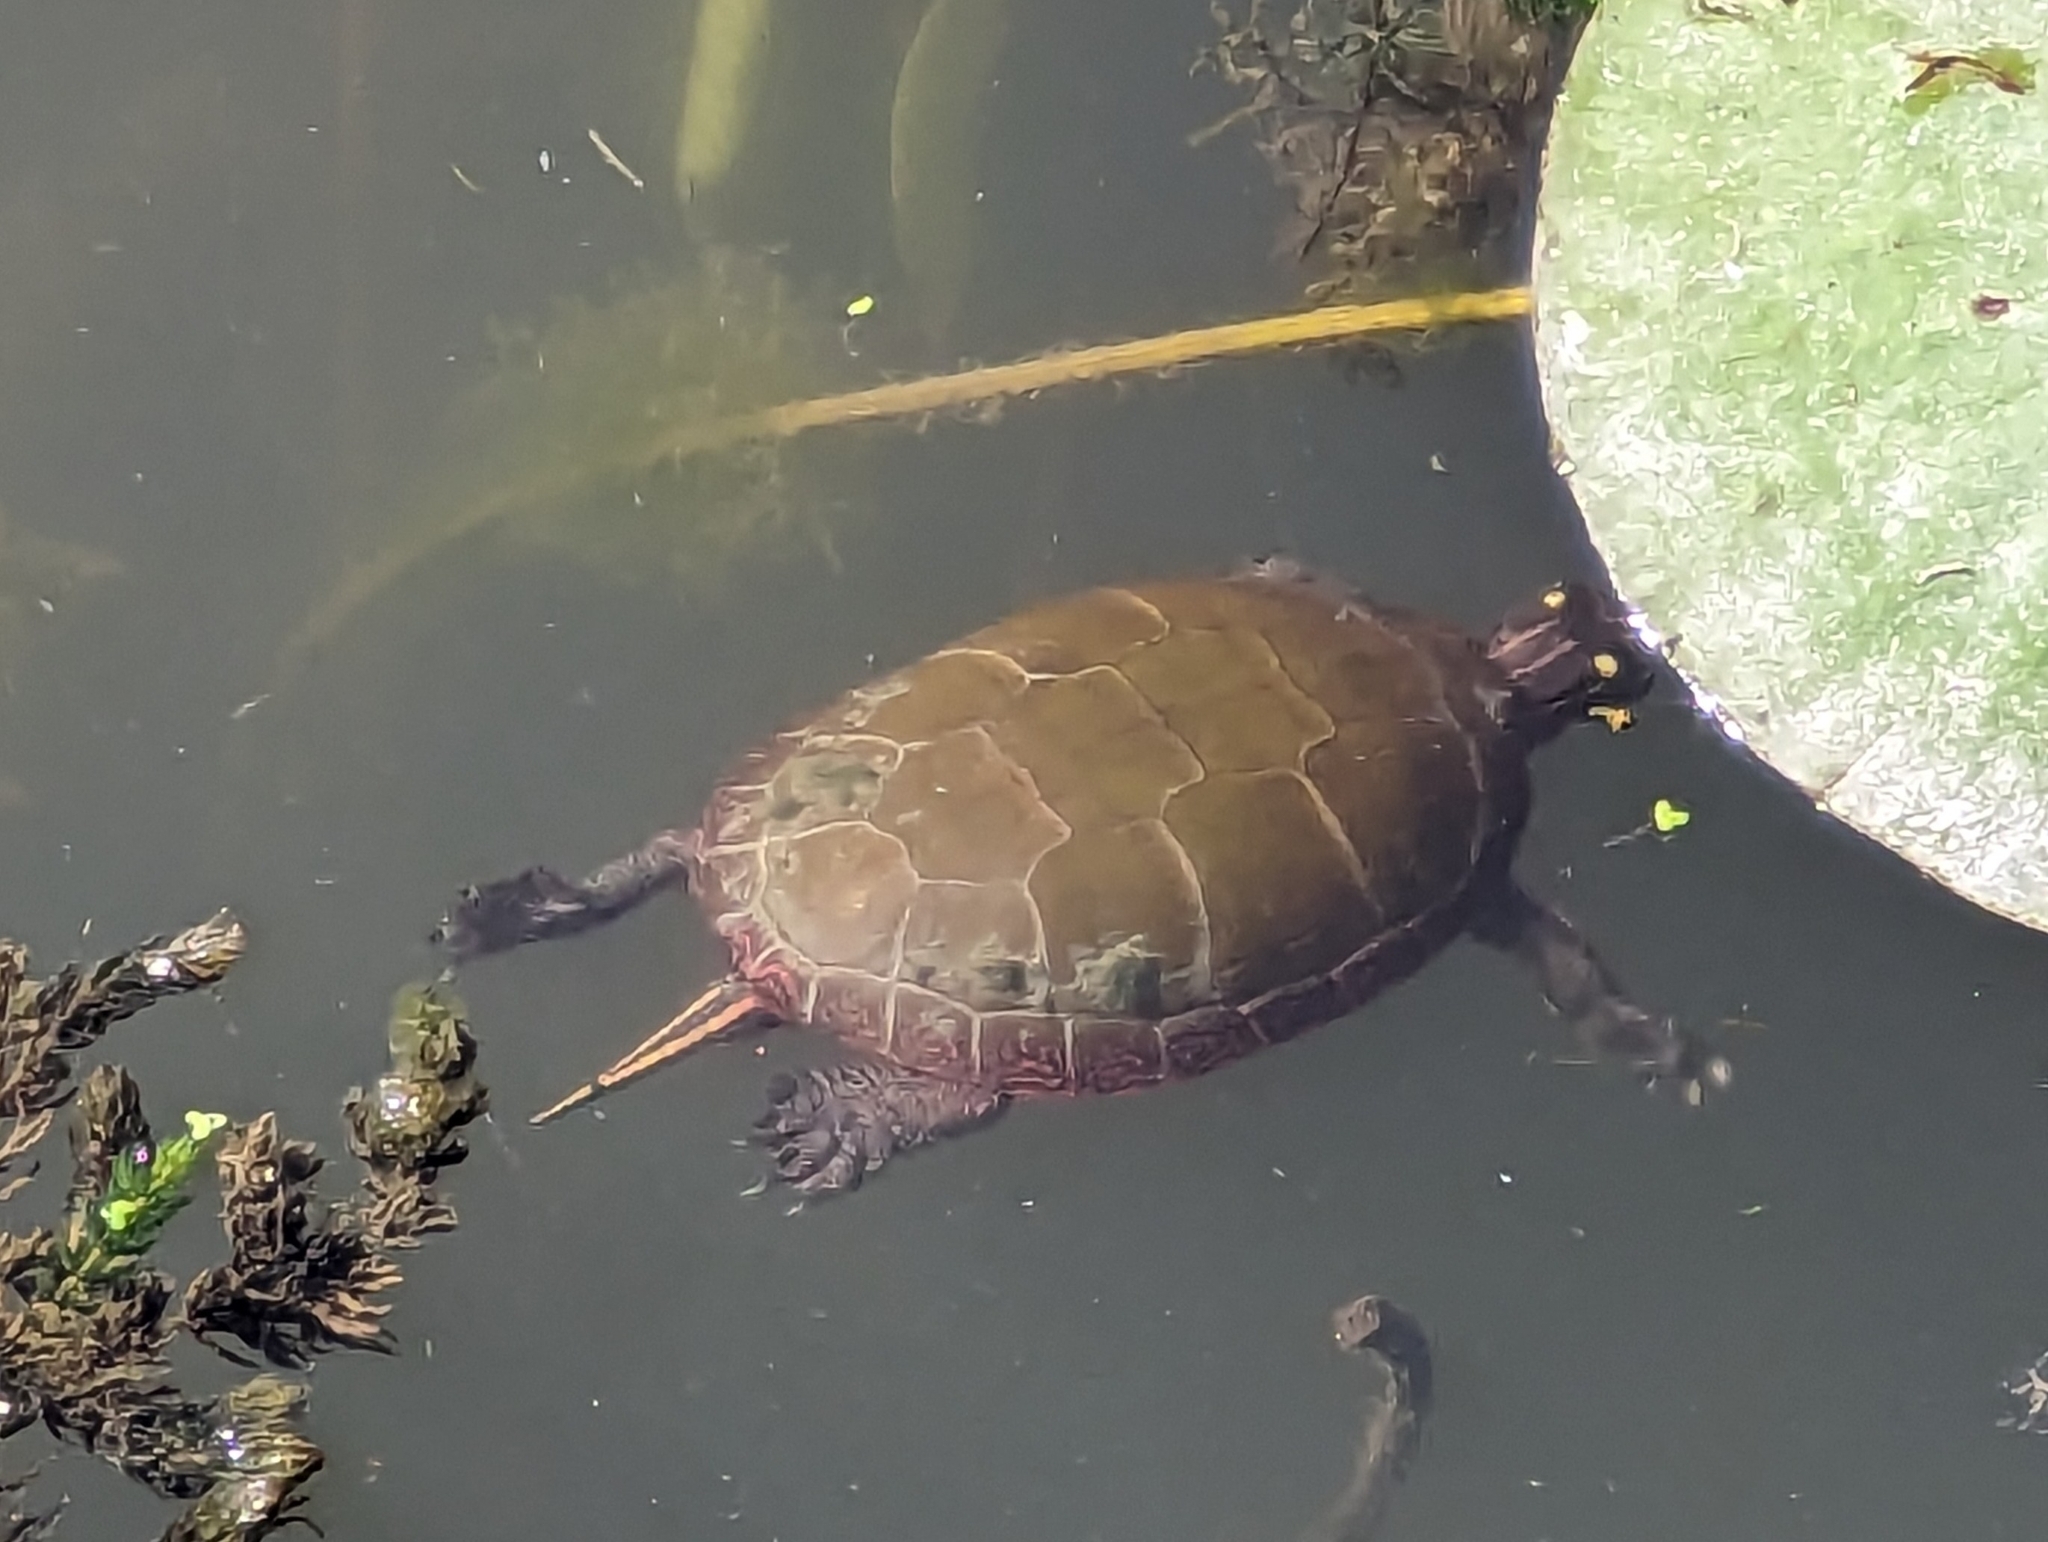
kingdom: Animalia
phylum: Chordata
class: Testudines
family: Emydidae
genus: Chrysemys
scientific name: Chrysemys picta
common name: Painted turtle
